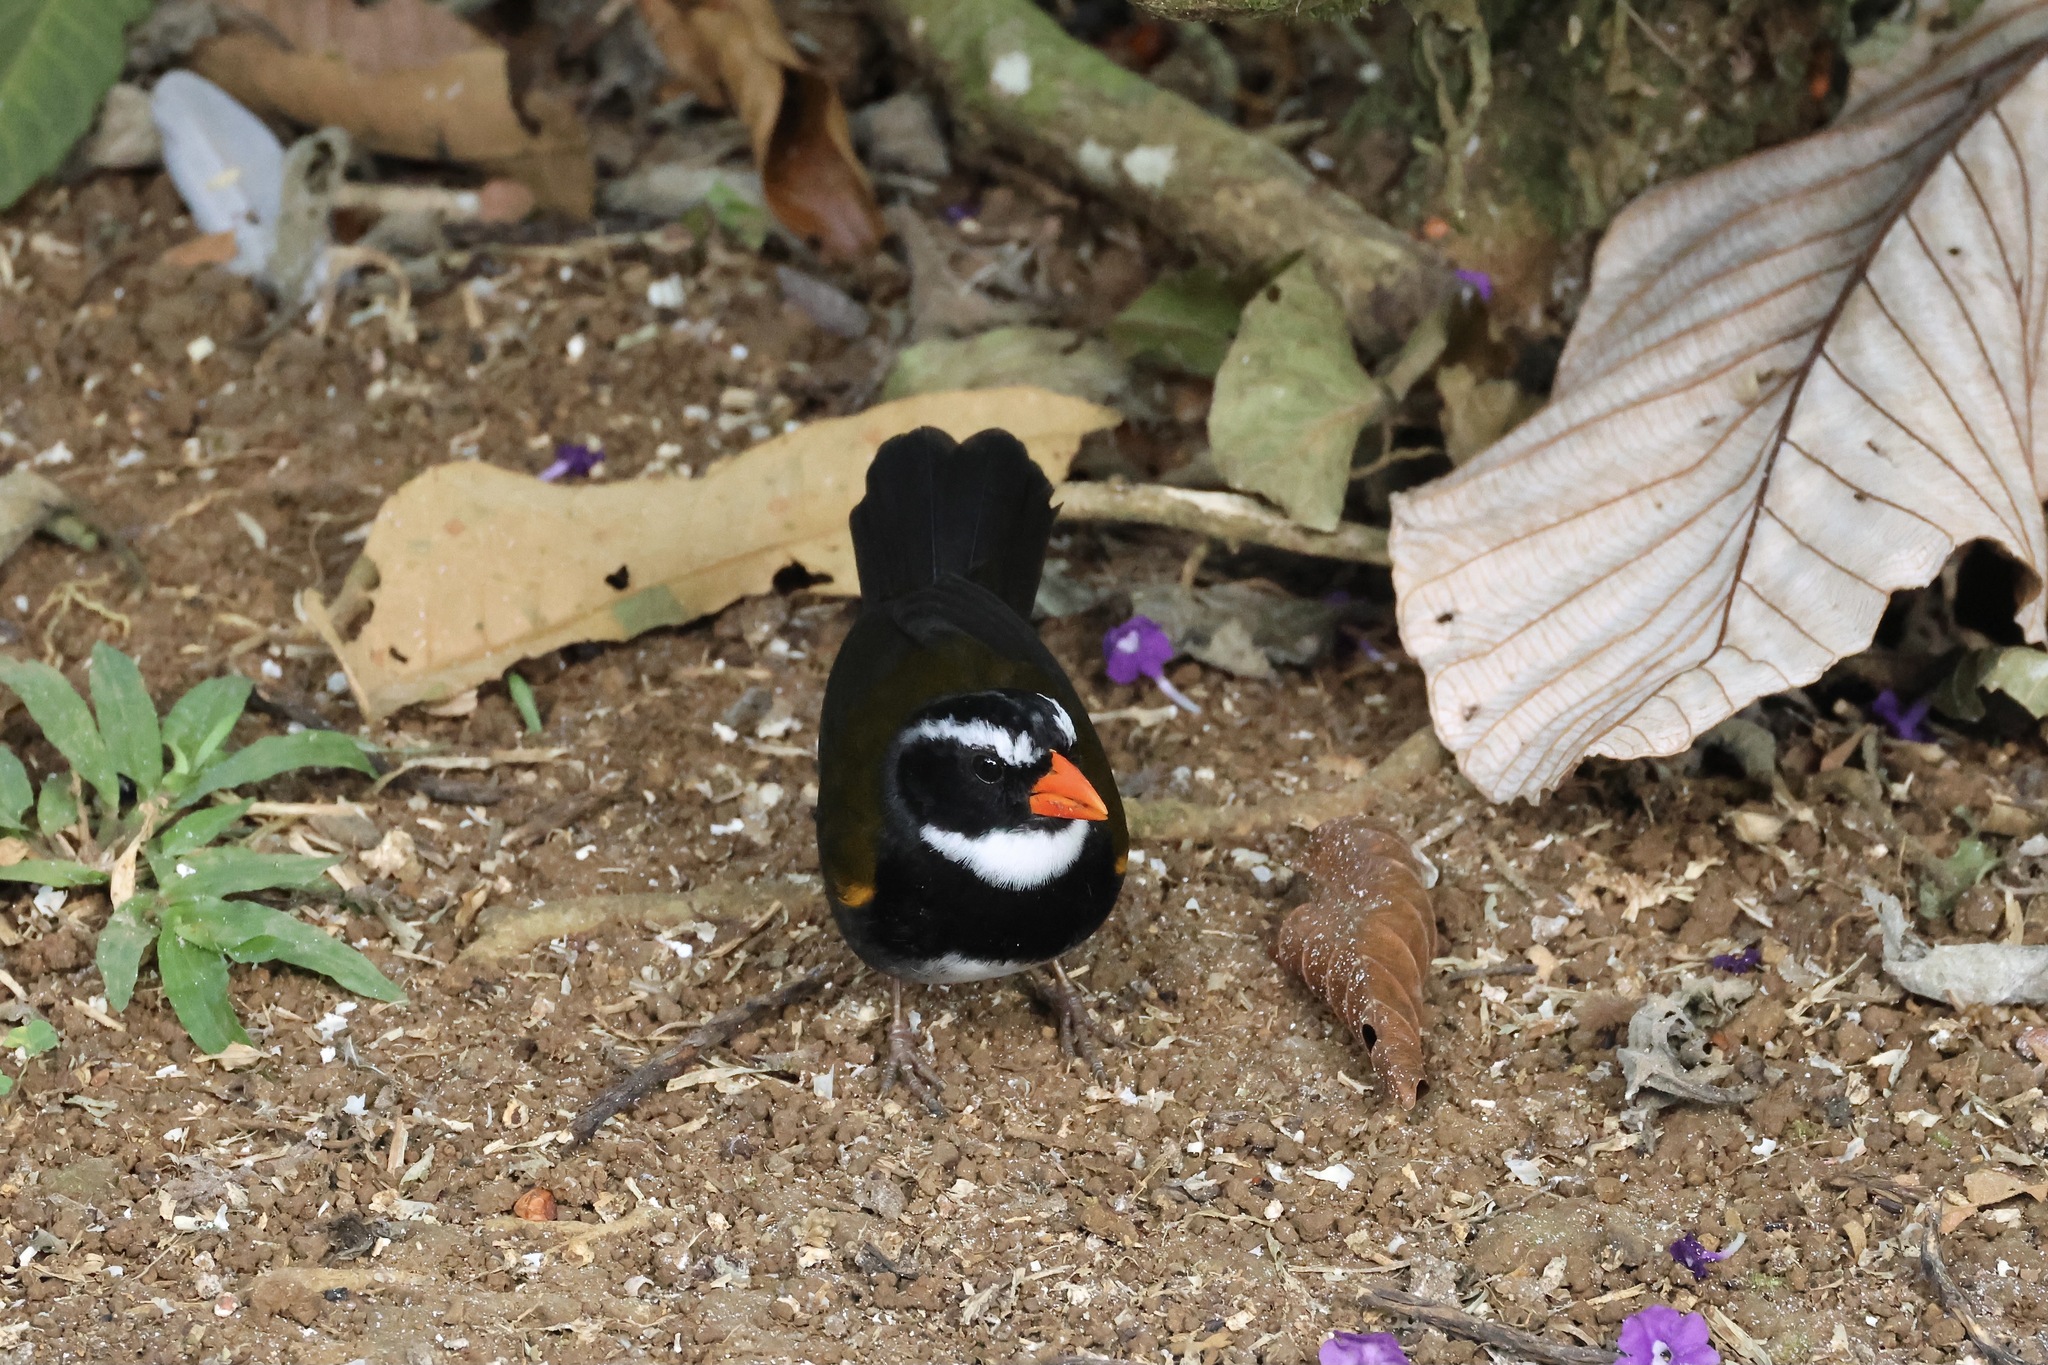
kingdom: Animalia
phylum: Chordata
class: Aves
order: Passeriformes
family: Passerellidae
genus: Arremon
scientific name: Arremon aurantiirostris
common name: Orange-billed sparrow
